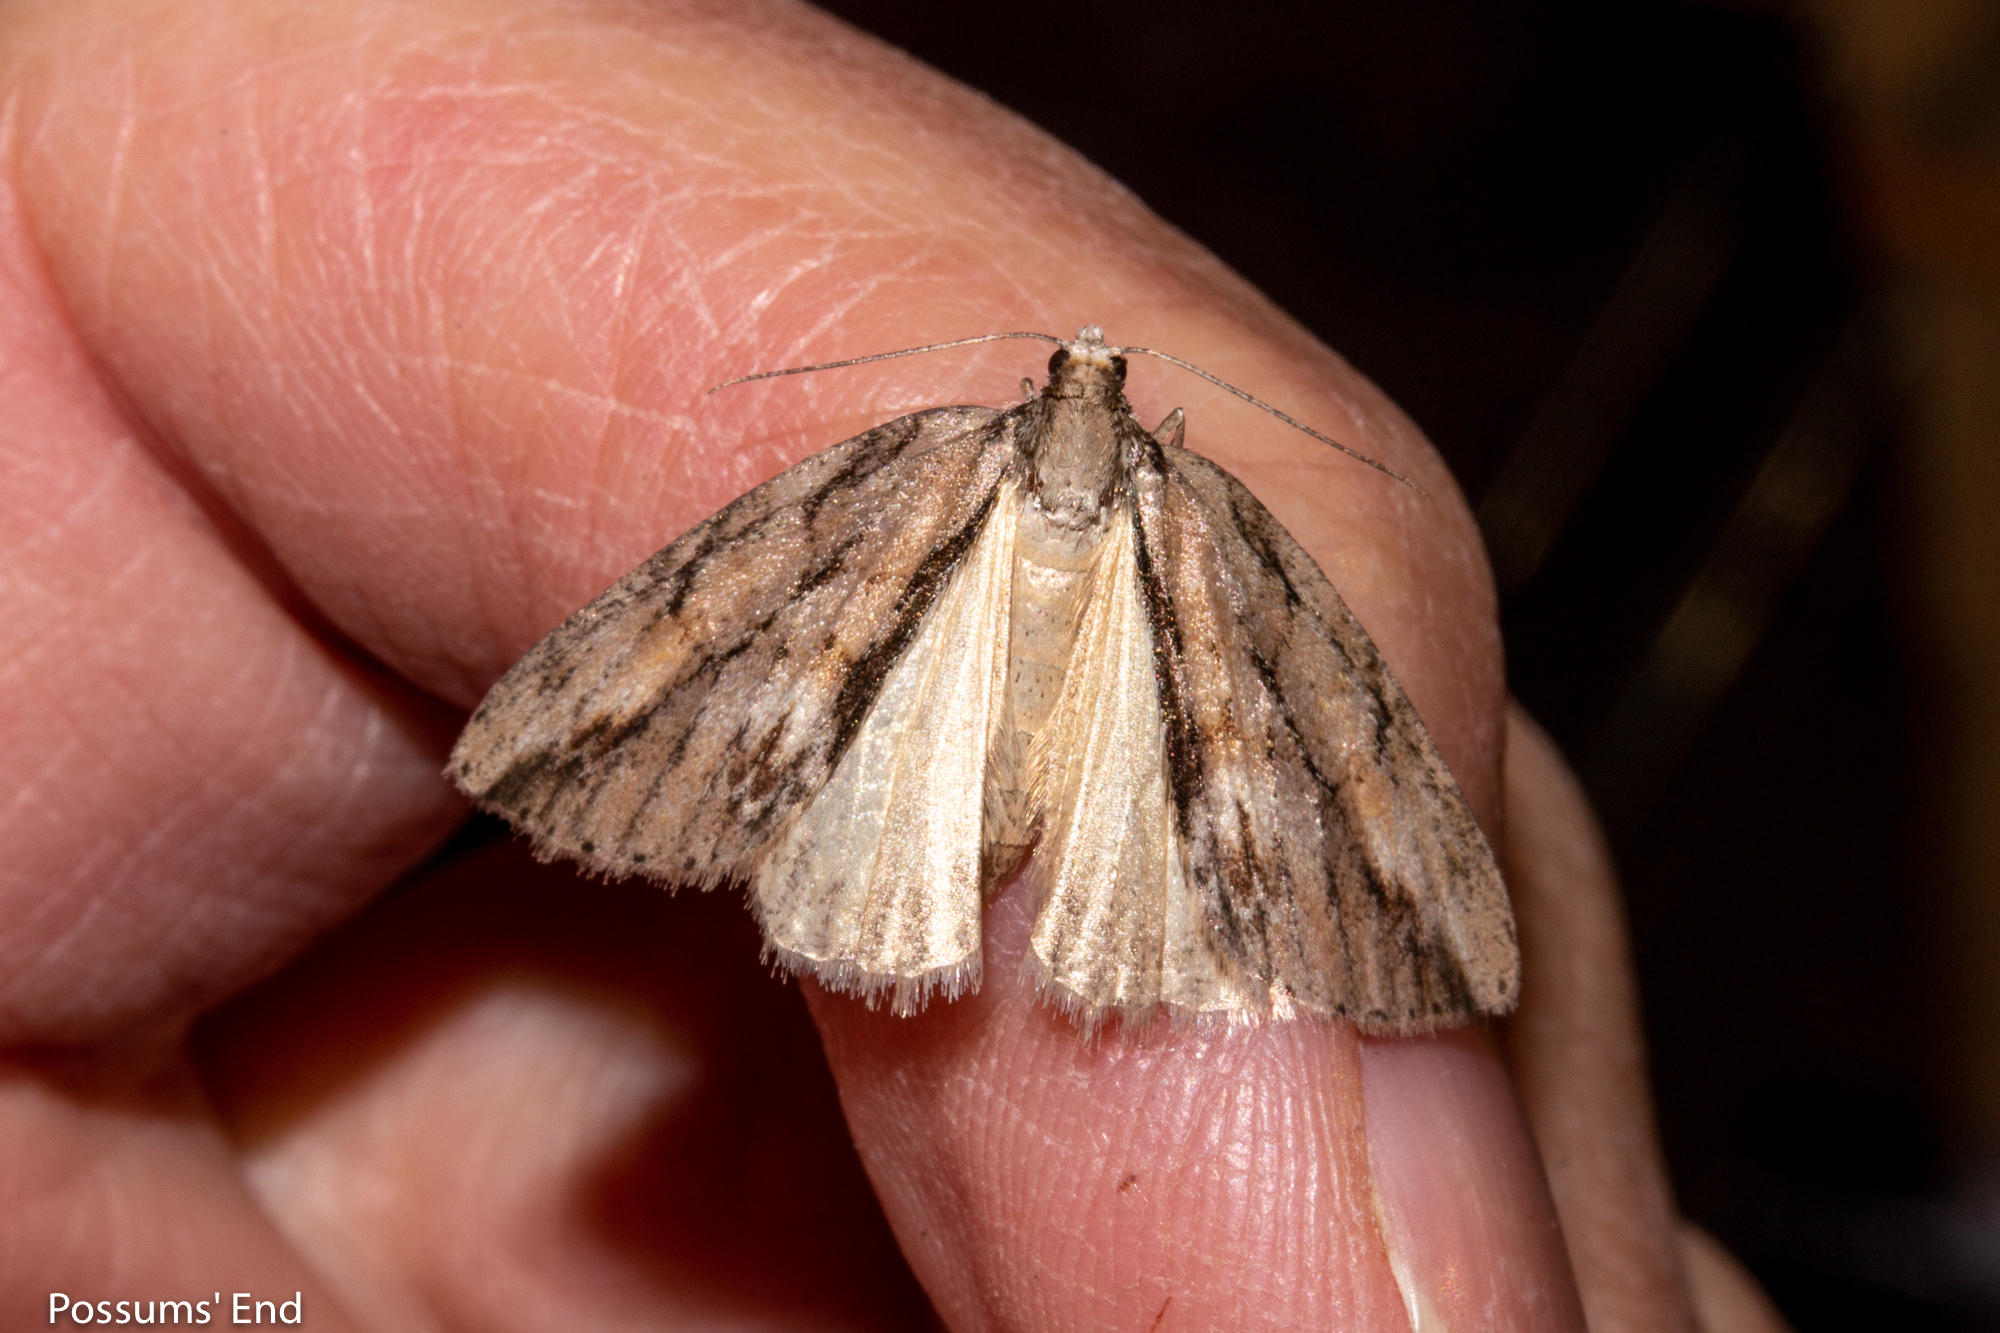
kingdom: Animalia
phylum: Arthropoda
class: Insecta
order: Lepidoptera
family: Geometridae
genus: Pseudocoremia
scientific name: Pseudocoremia lupinata
